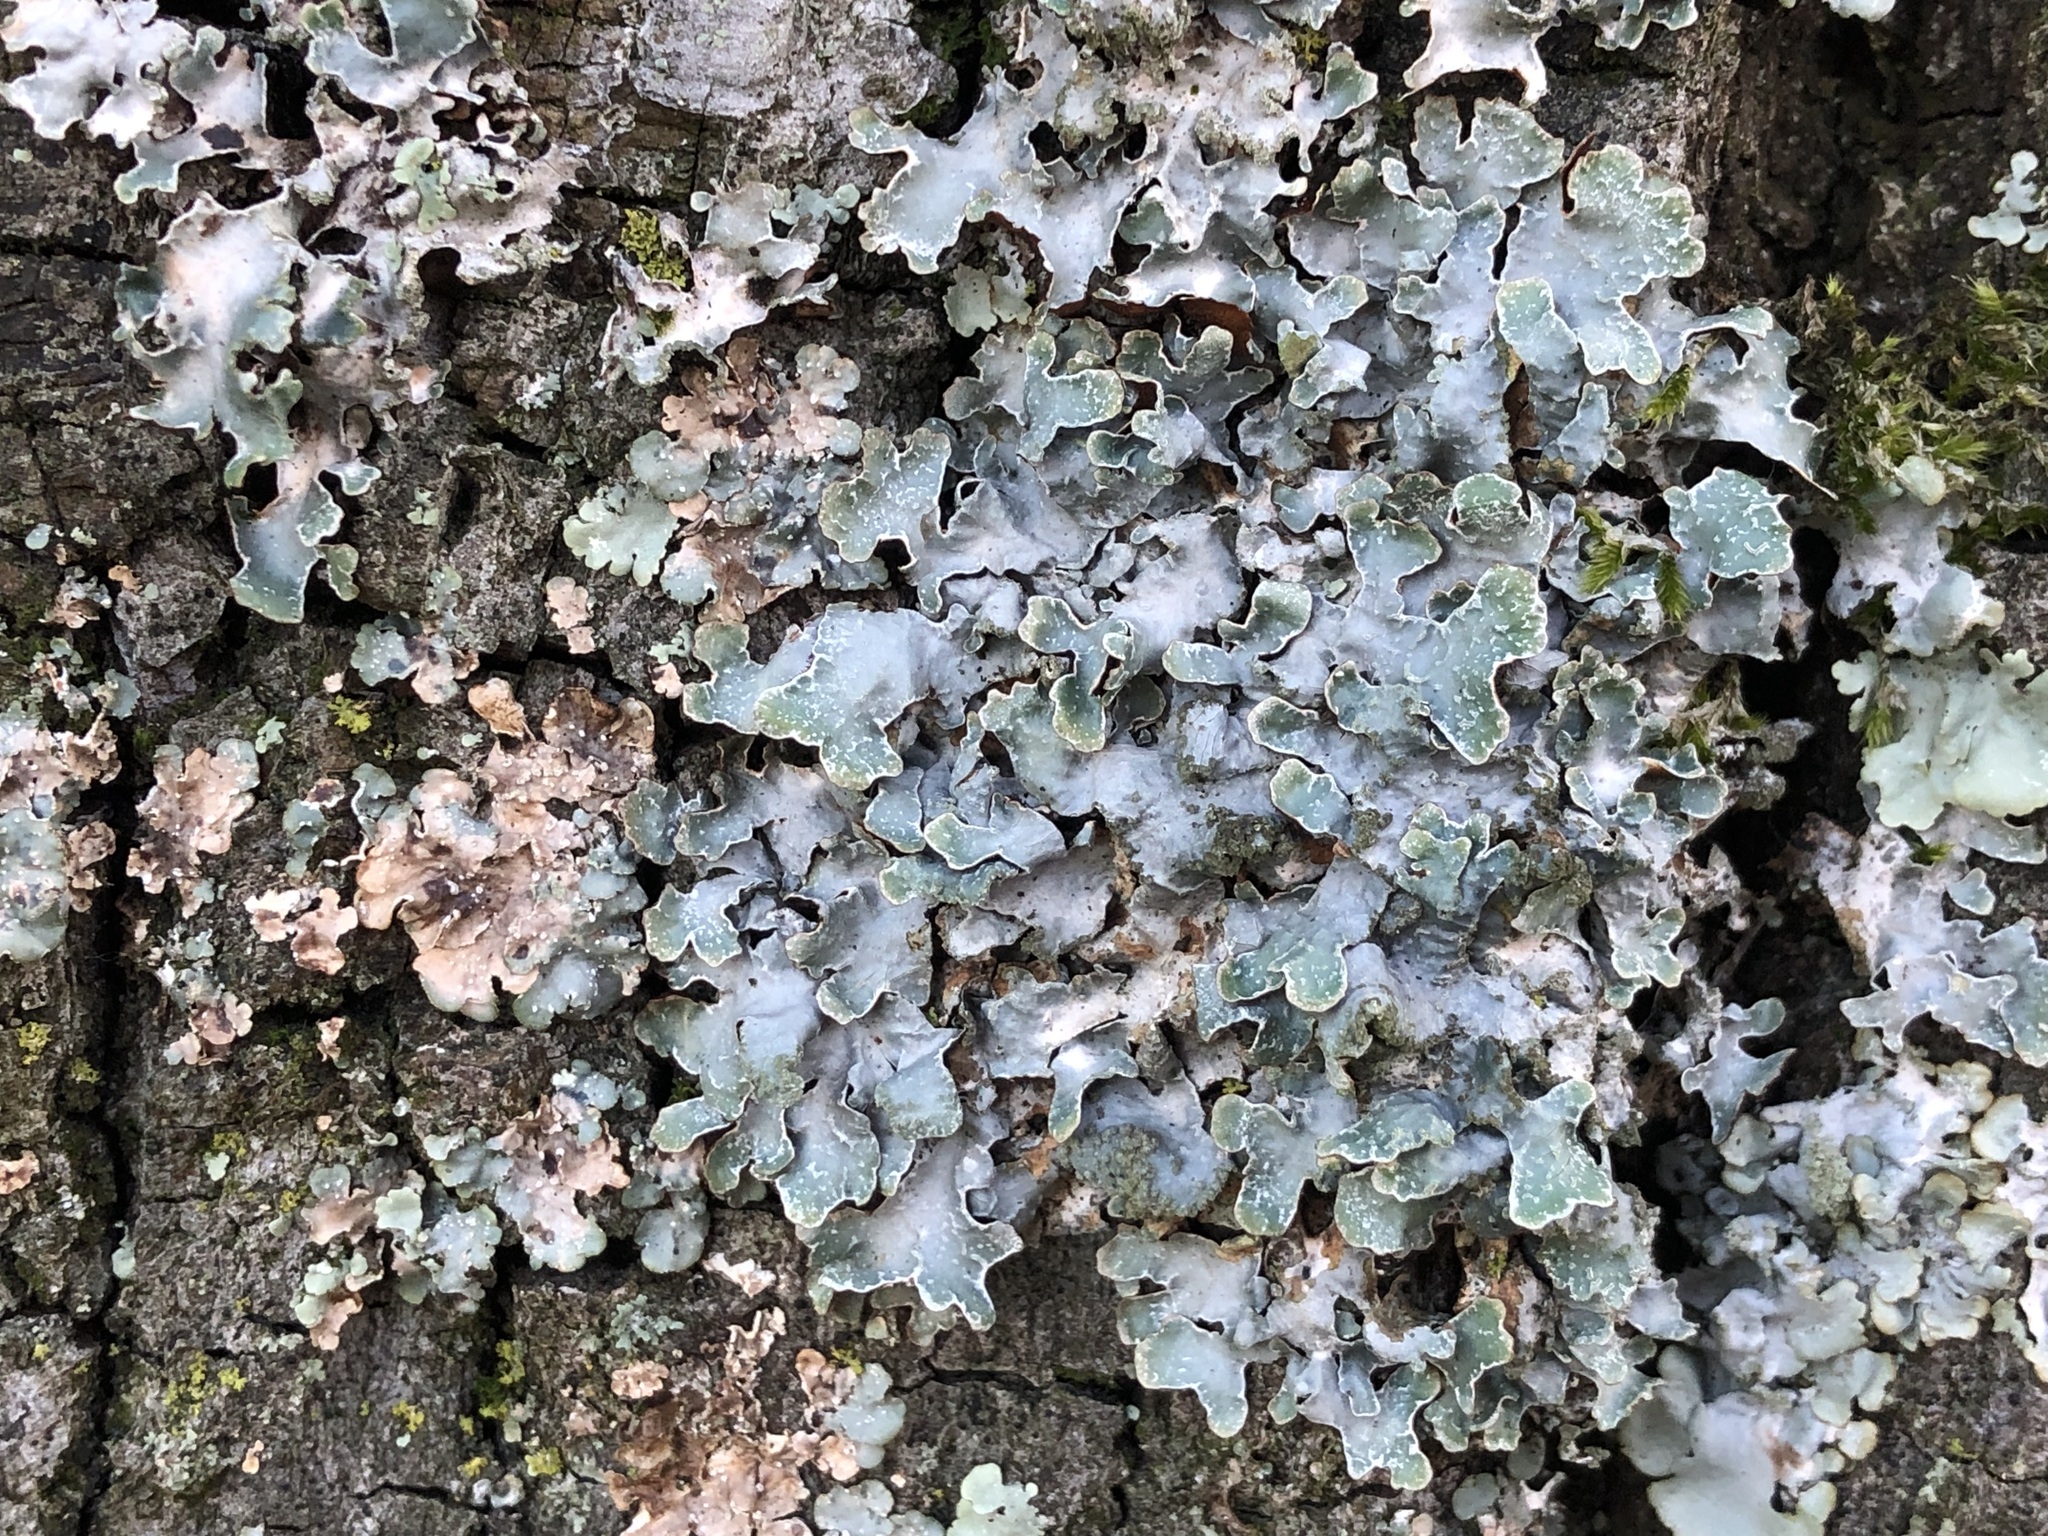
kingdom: Fungi
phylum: Ascomycota
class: Lecanoromycetes
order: Lecanorales
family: Parmeliaceae
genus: Parmelia
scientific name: Parmelia sulcata
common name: Netted shield lichen
